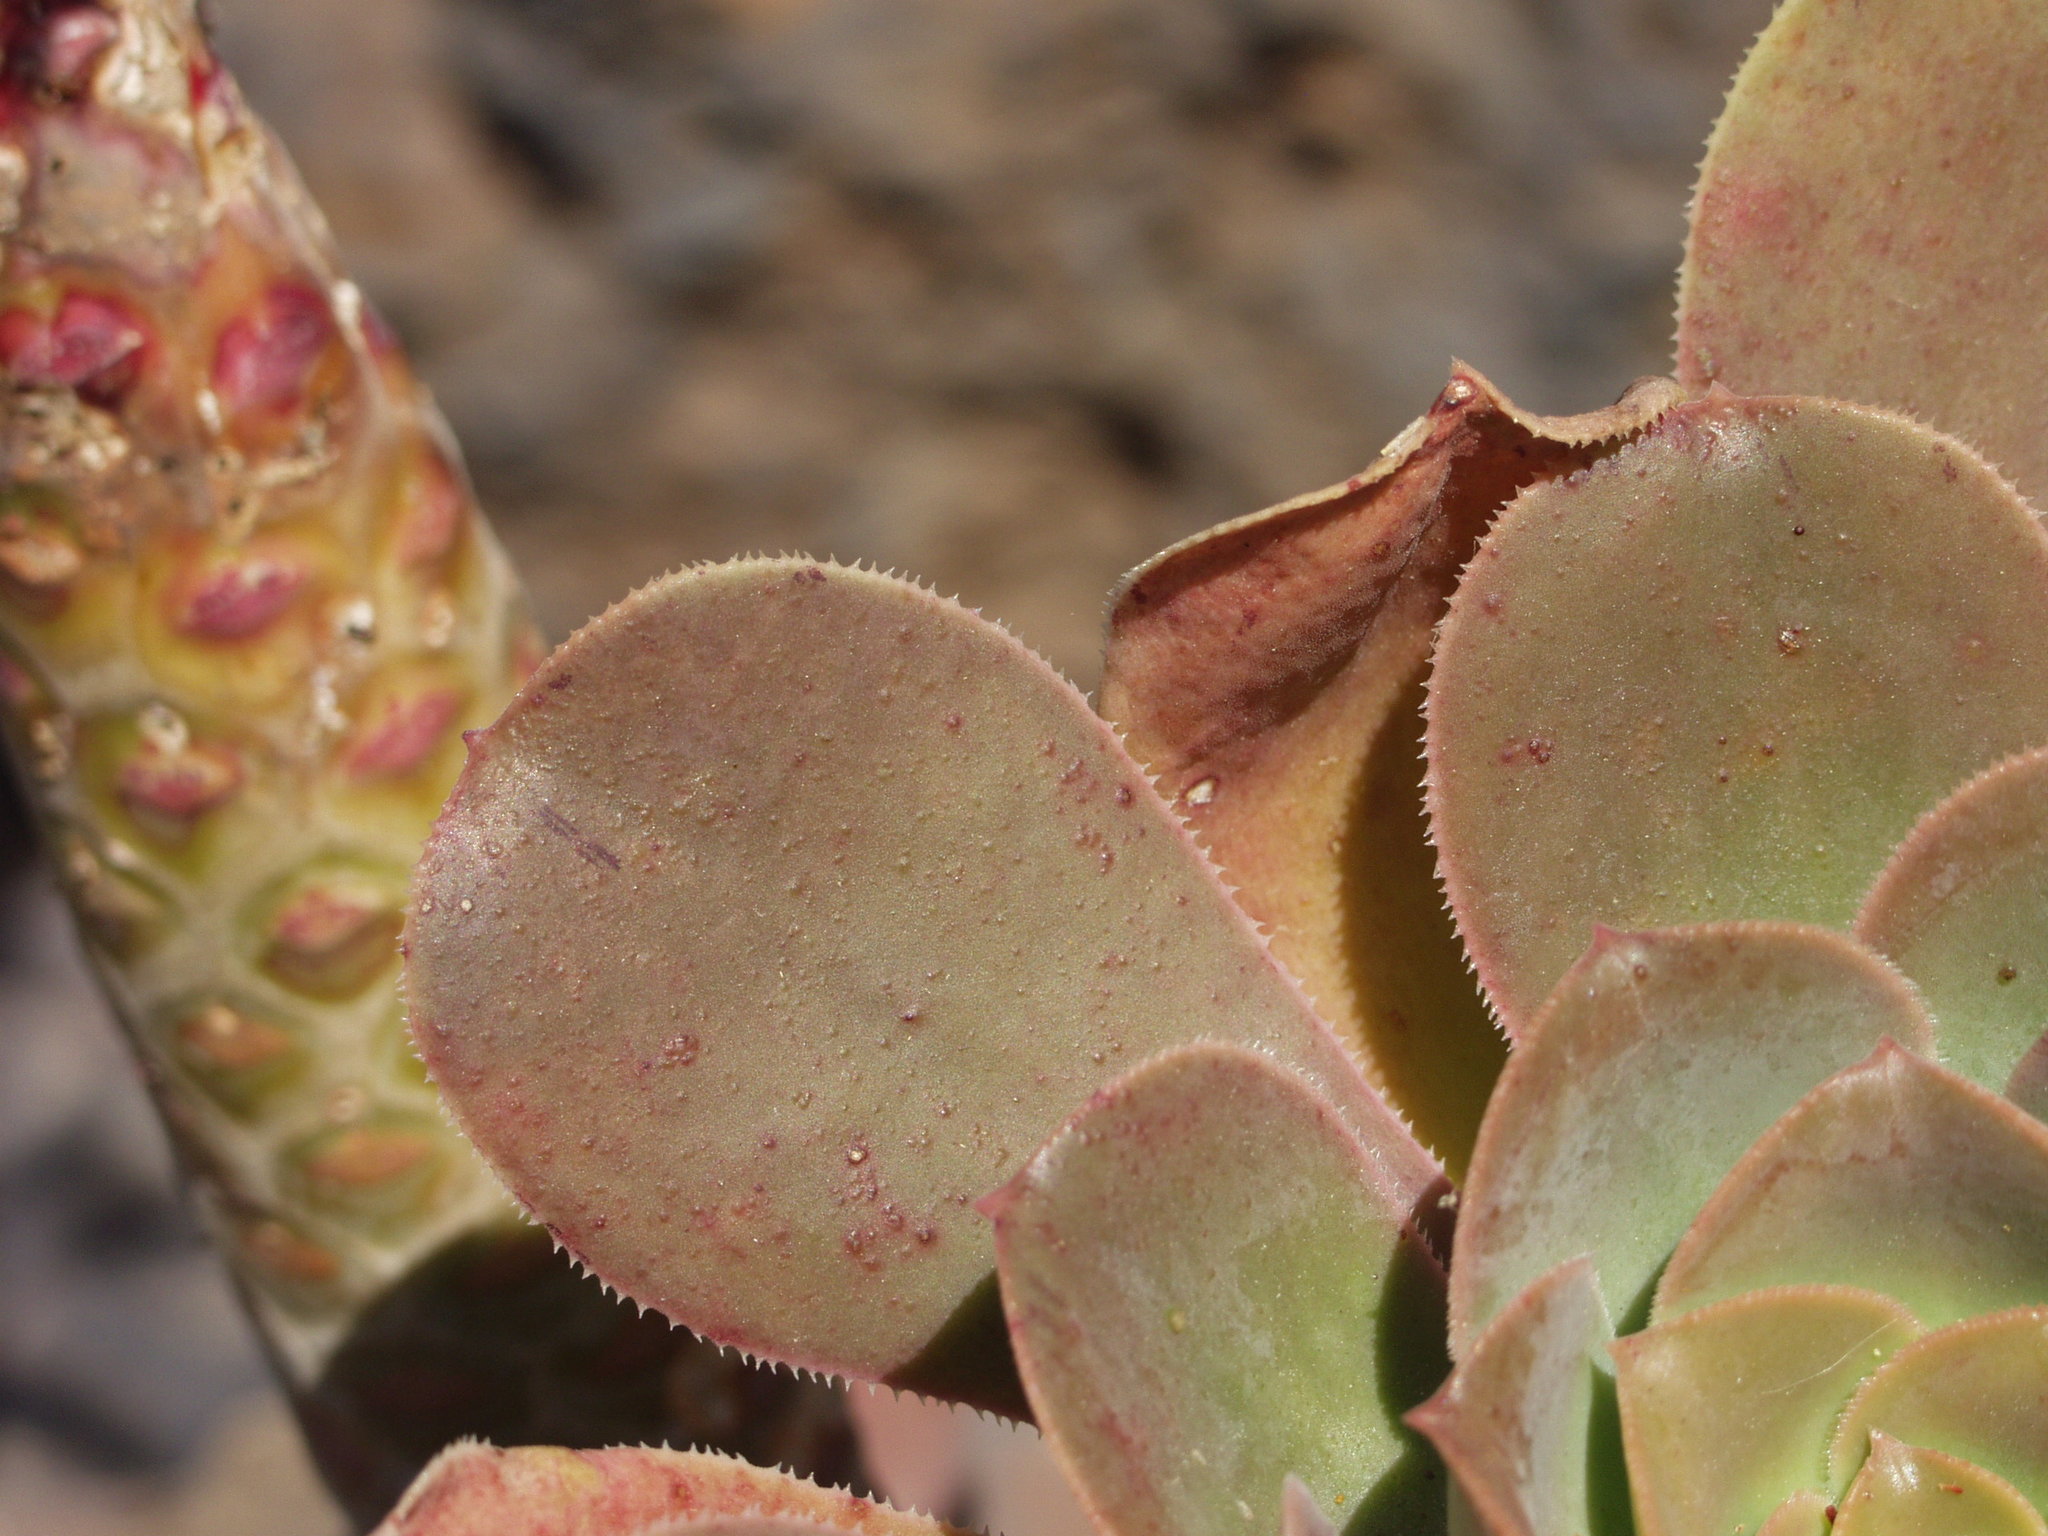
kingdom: Plantae
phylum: Tracheophyta
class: Magnoliopsida
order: Saxifragales
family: Crassulaceae
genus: Aeonium
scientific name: Aeonium hierrense
